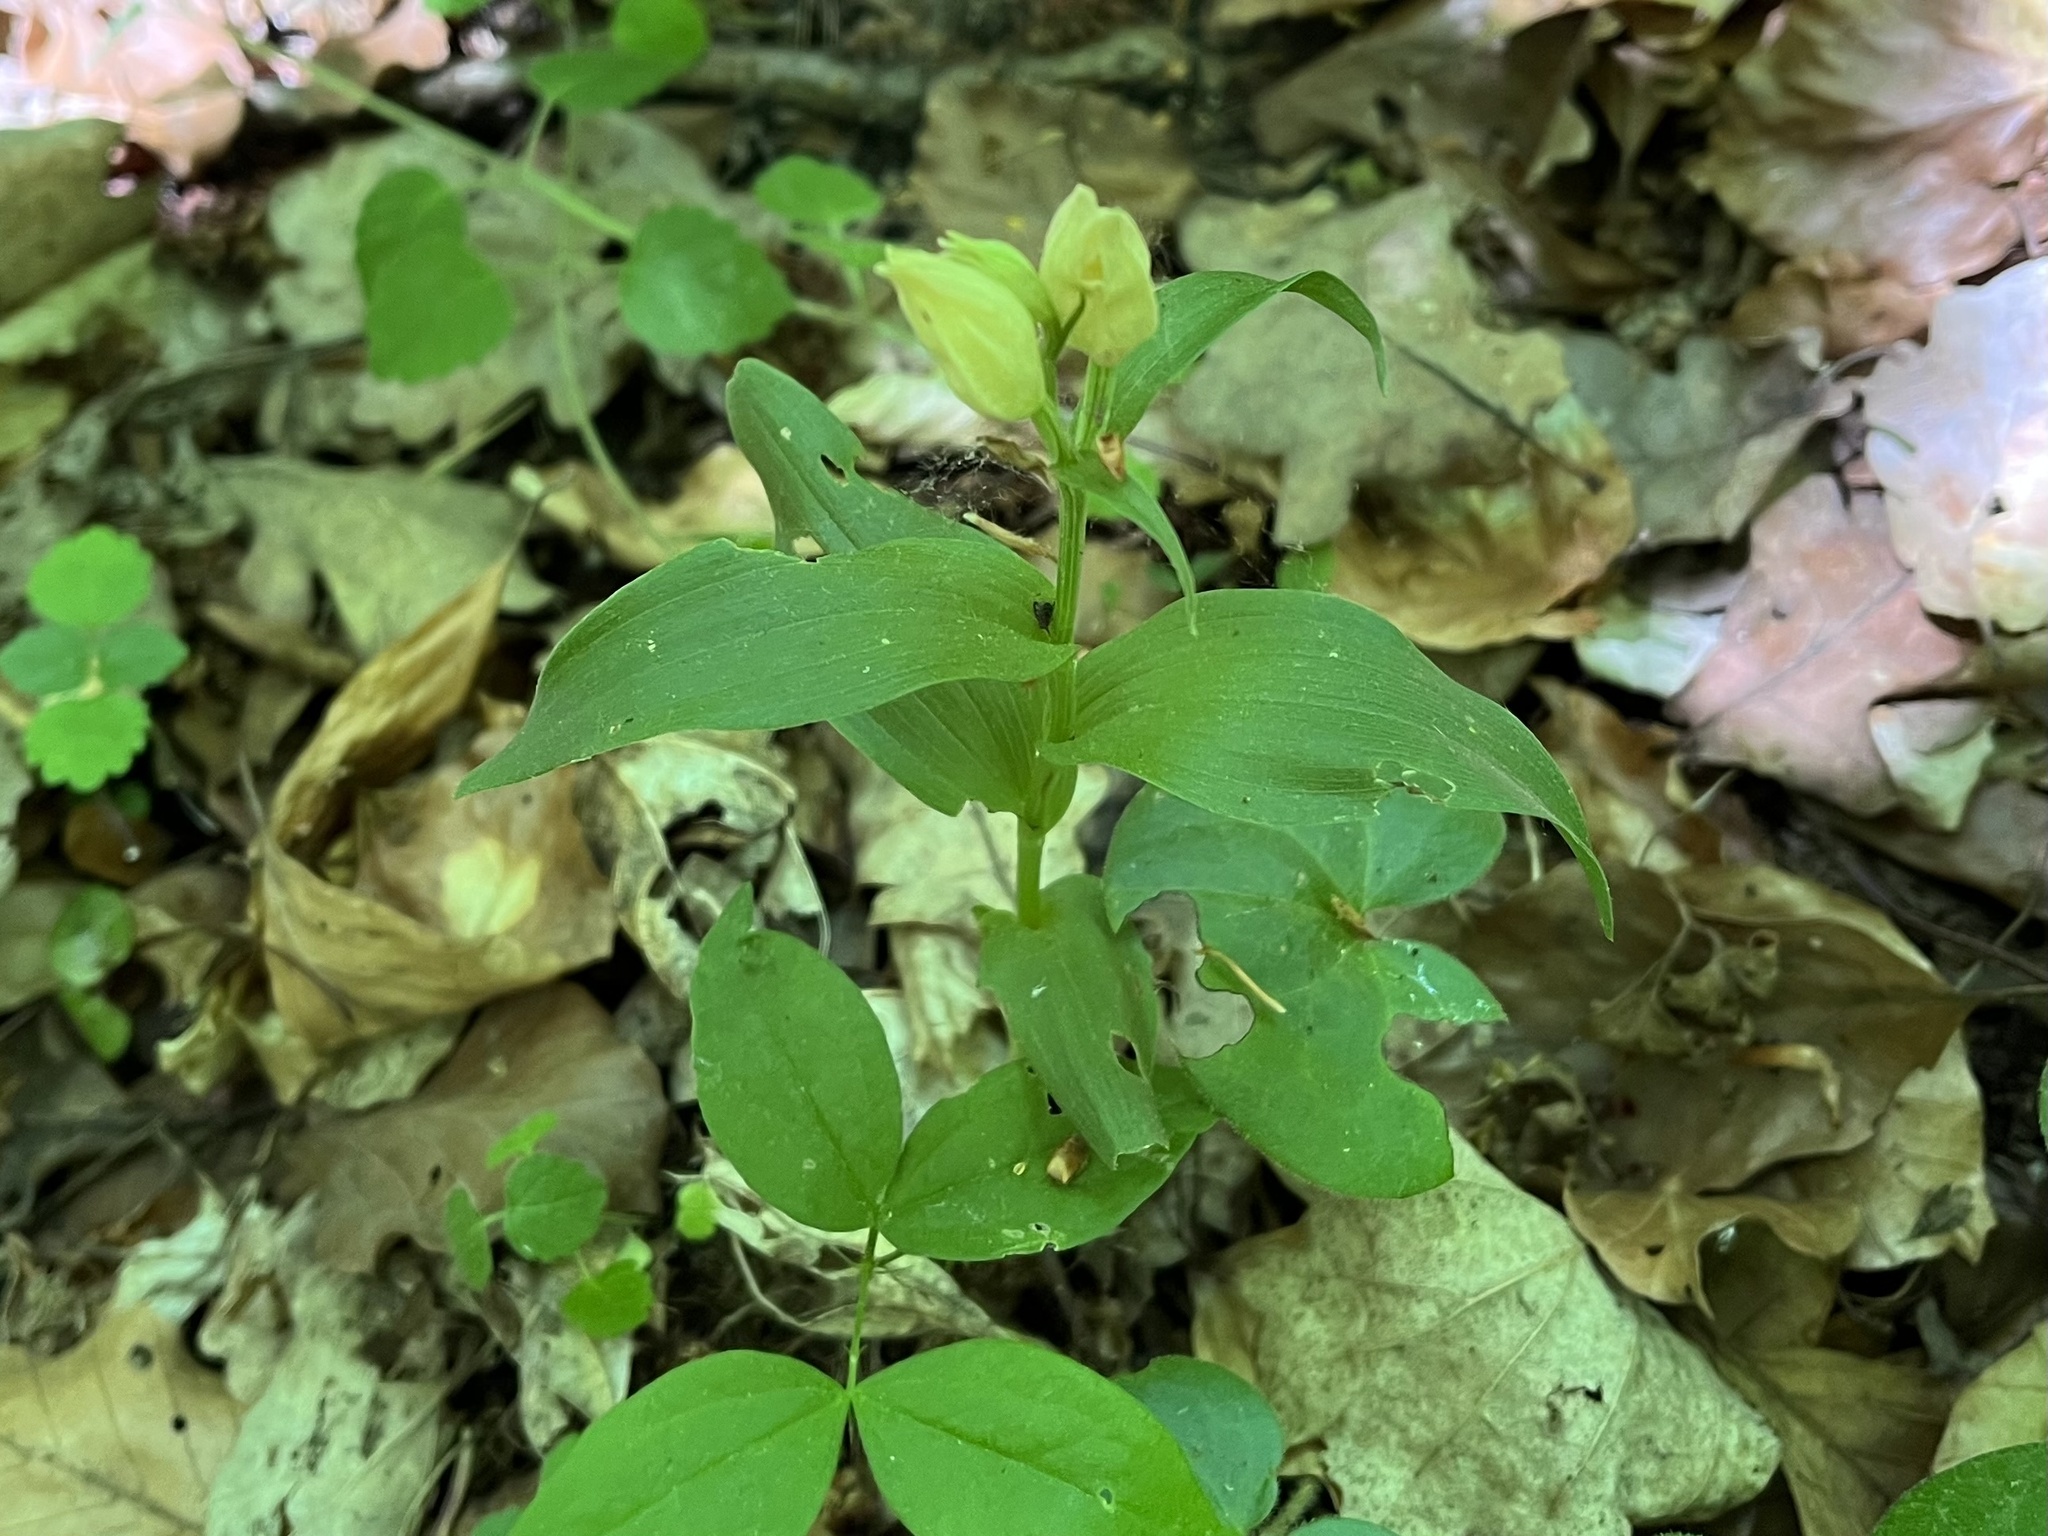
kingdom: Plantae
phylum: Tracheophyta
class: Liliopsida
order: Asparagales
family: Orchidaceae
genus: Cephalanthera
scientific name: Cephalanthera damasonium
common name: White helleborine
